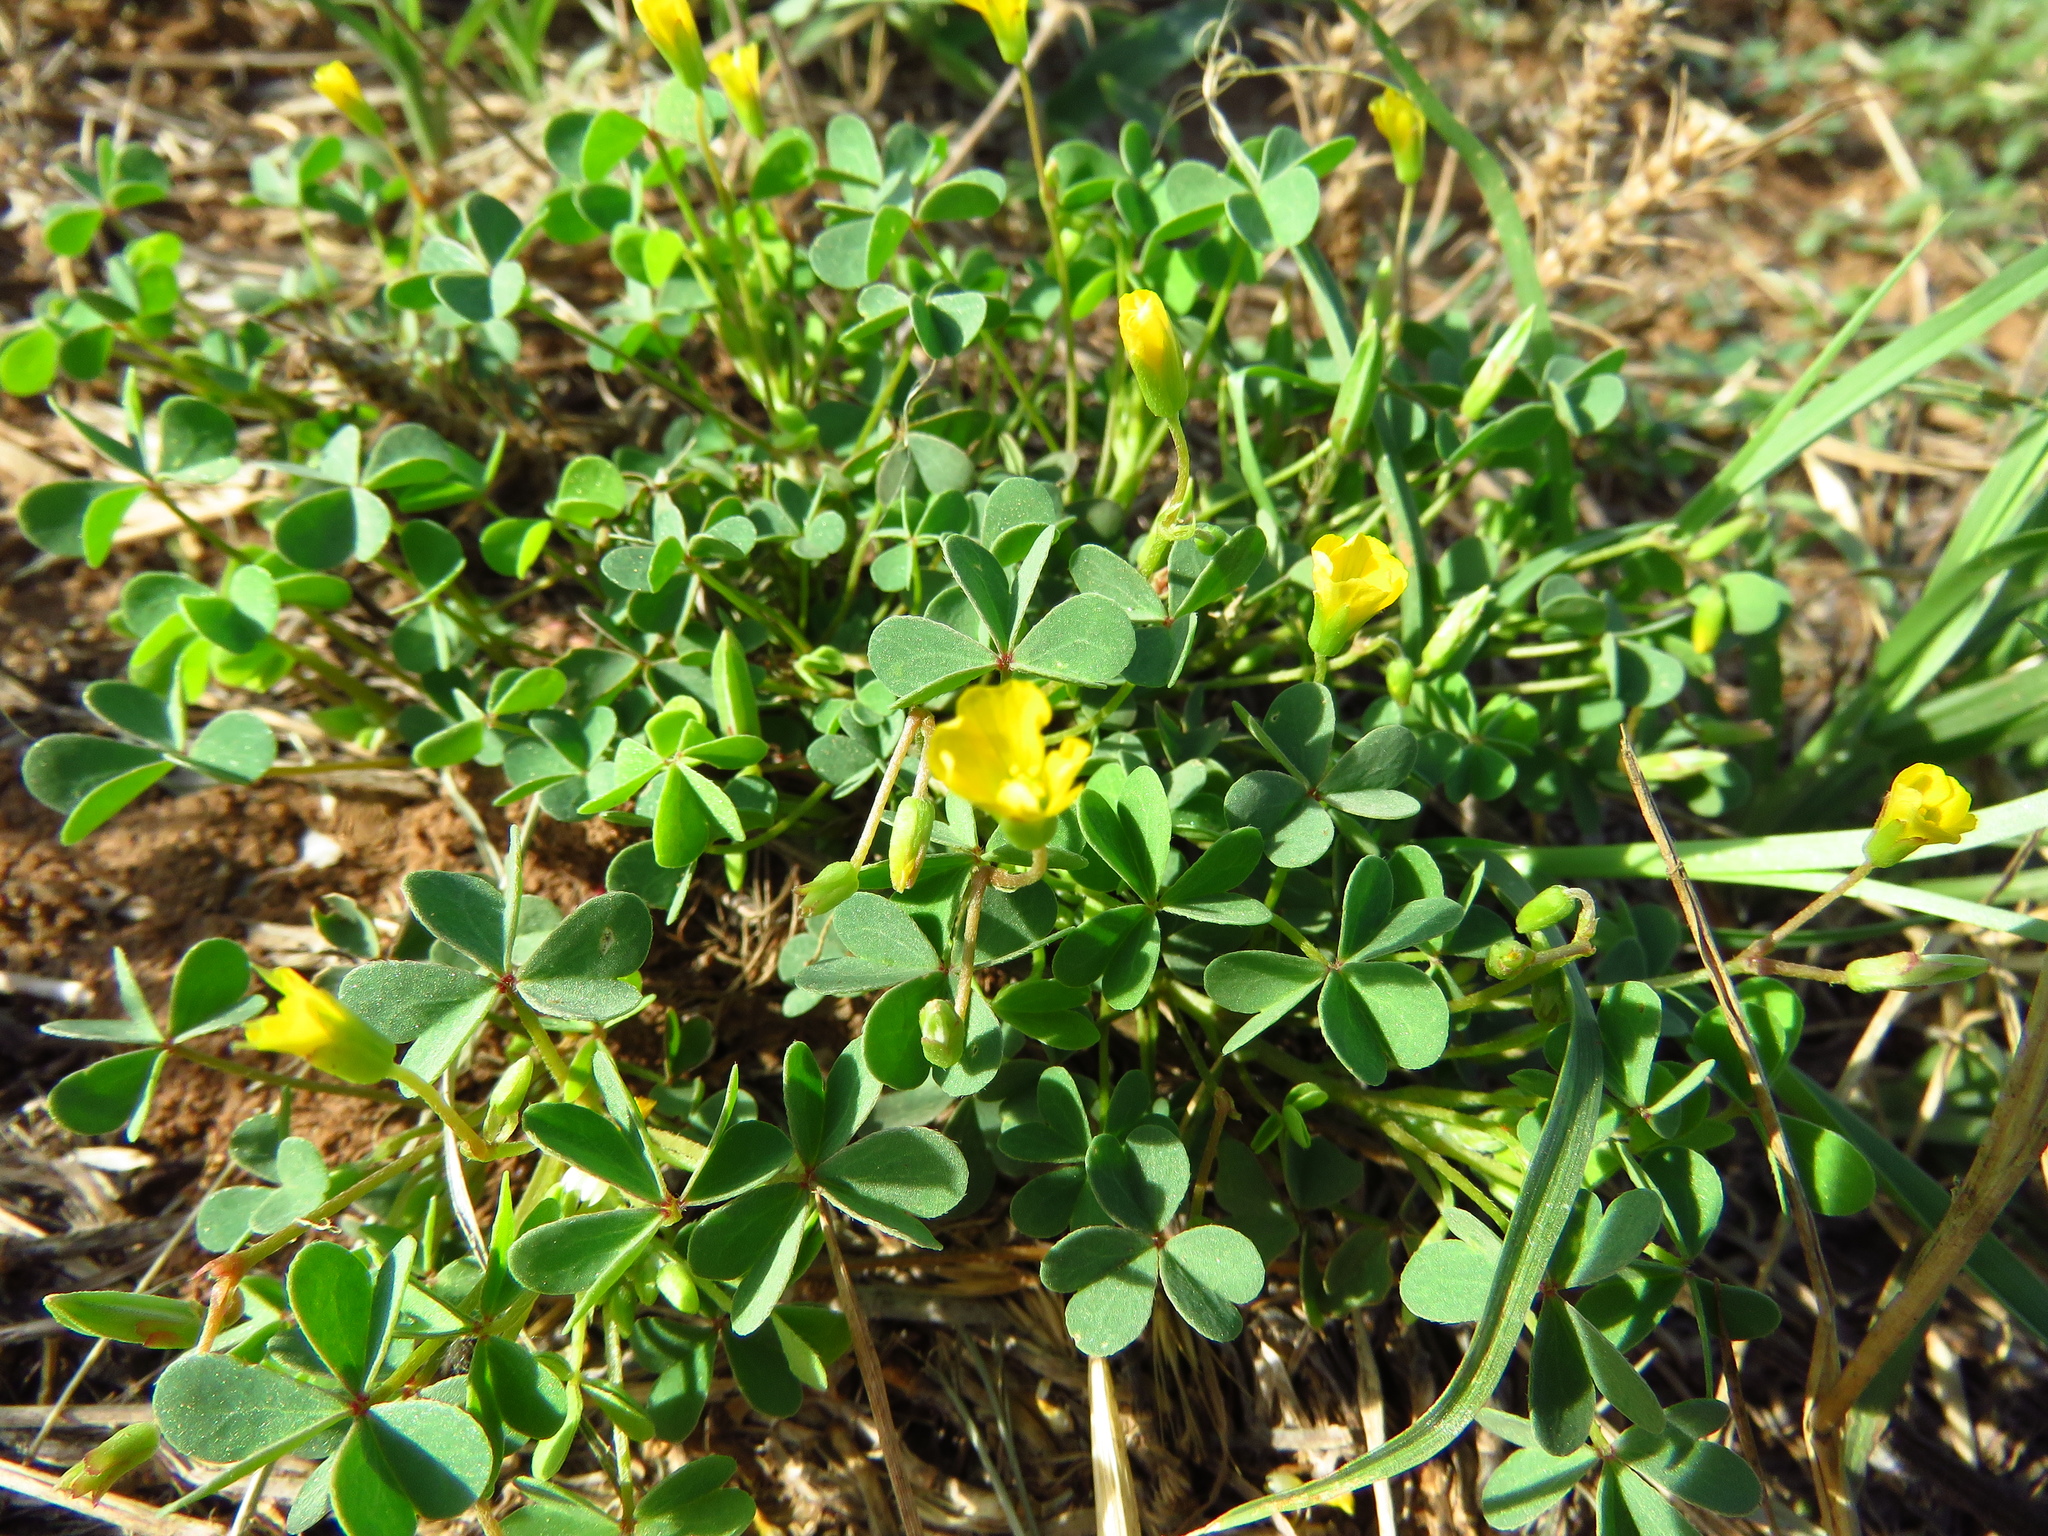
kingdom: Plantae
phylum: Tracheophyta
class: Magnoliopsida
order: Oxalidales
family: Oxalidaceae
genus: Oxalis
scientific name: Oxalis dillenii
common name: Sussex yellow-sorrel
